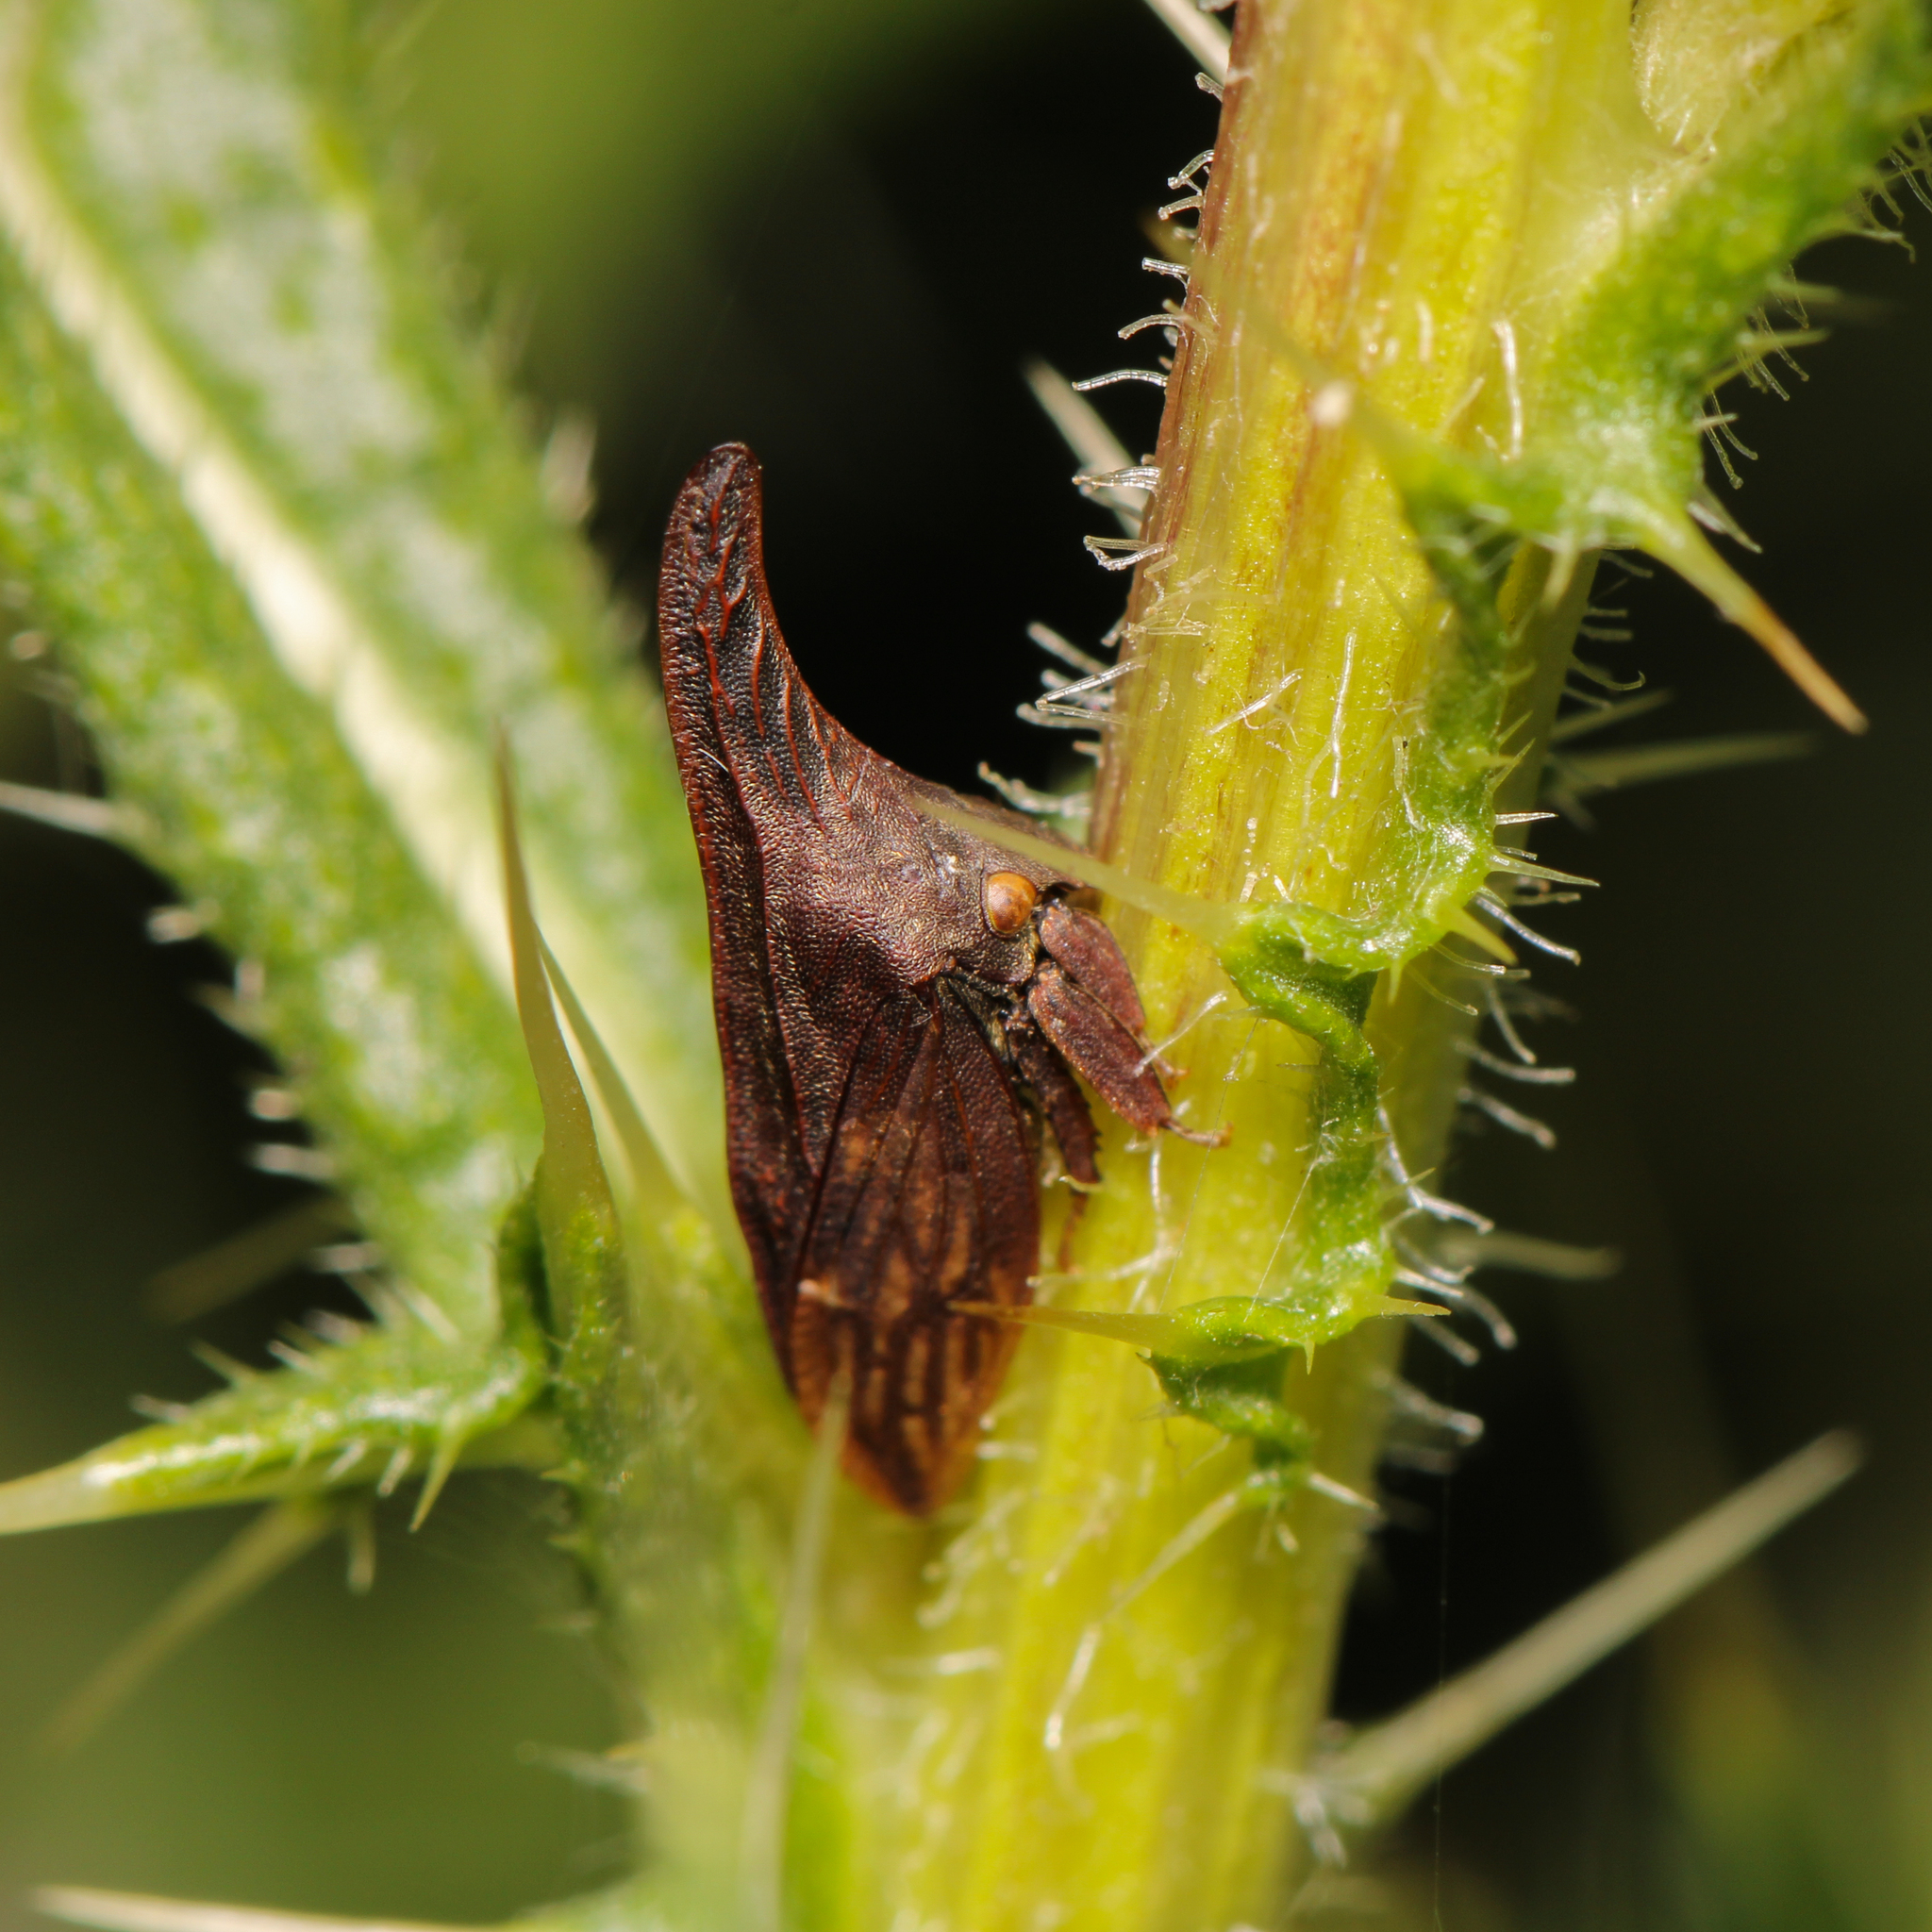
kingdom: Animalia
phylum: Arthropoda
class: Insecta
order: Hemiptera
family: Membracidae
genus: Enchenopa
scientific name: Enchenopa latipes
